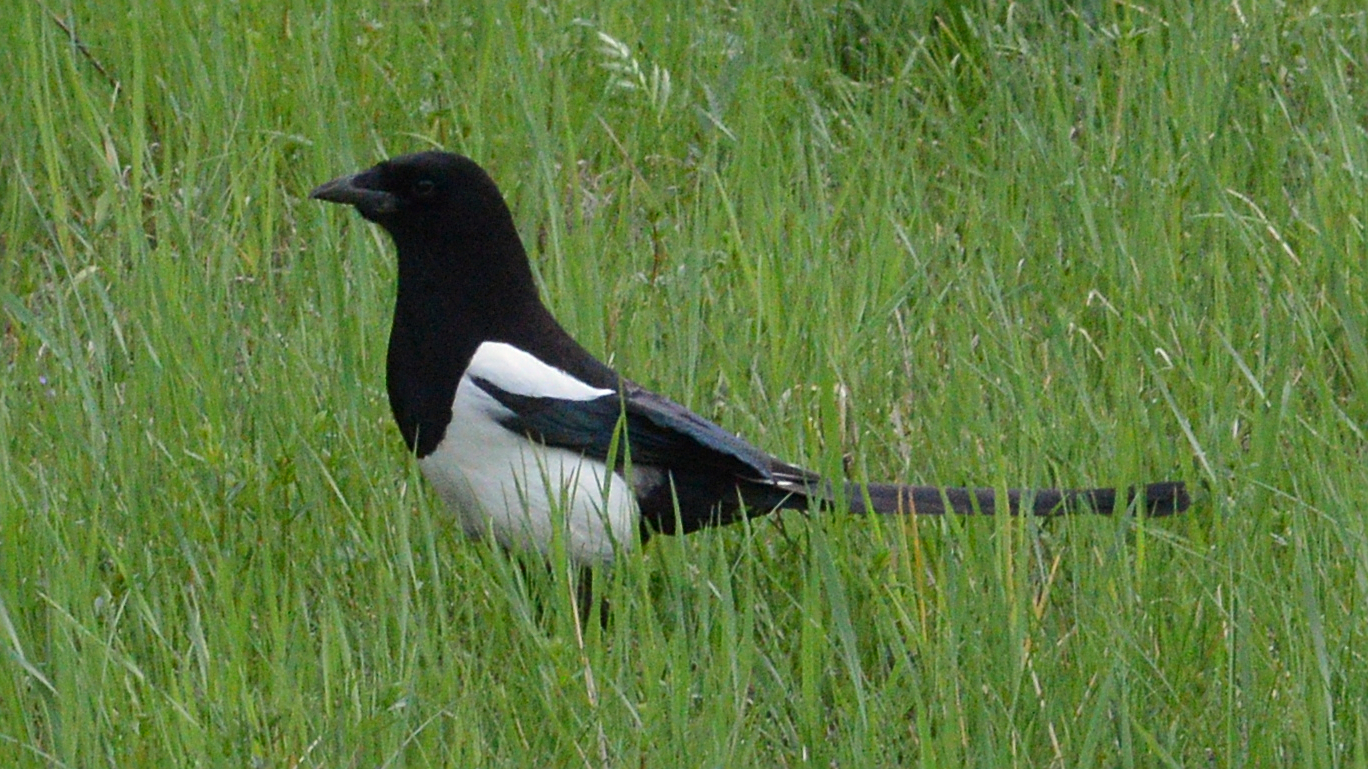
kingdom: Animalia
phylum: Chordata
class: Aves
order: Passeriformes
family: Corvidae
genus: Pica
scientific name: Pica pica
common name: Eurasian magpie
